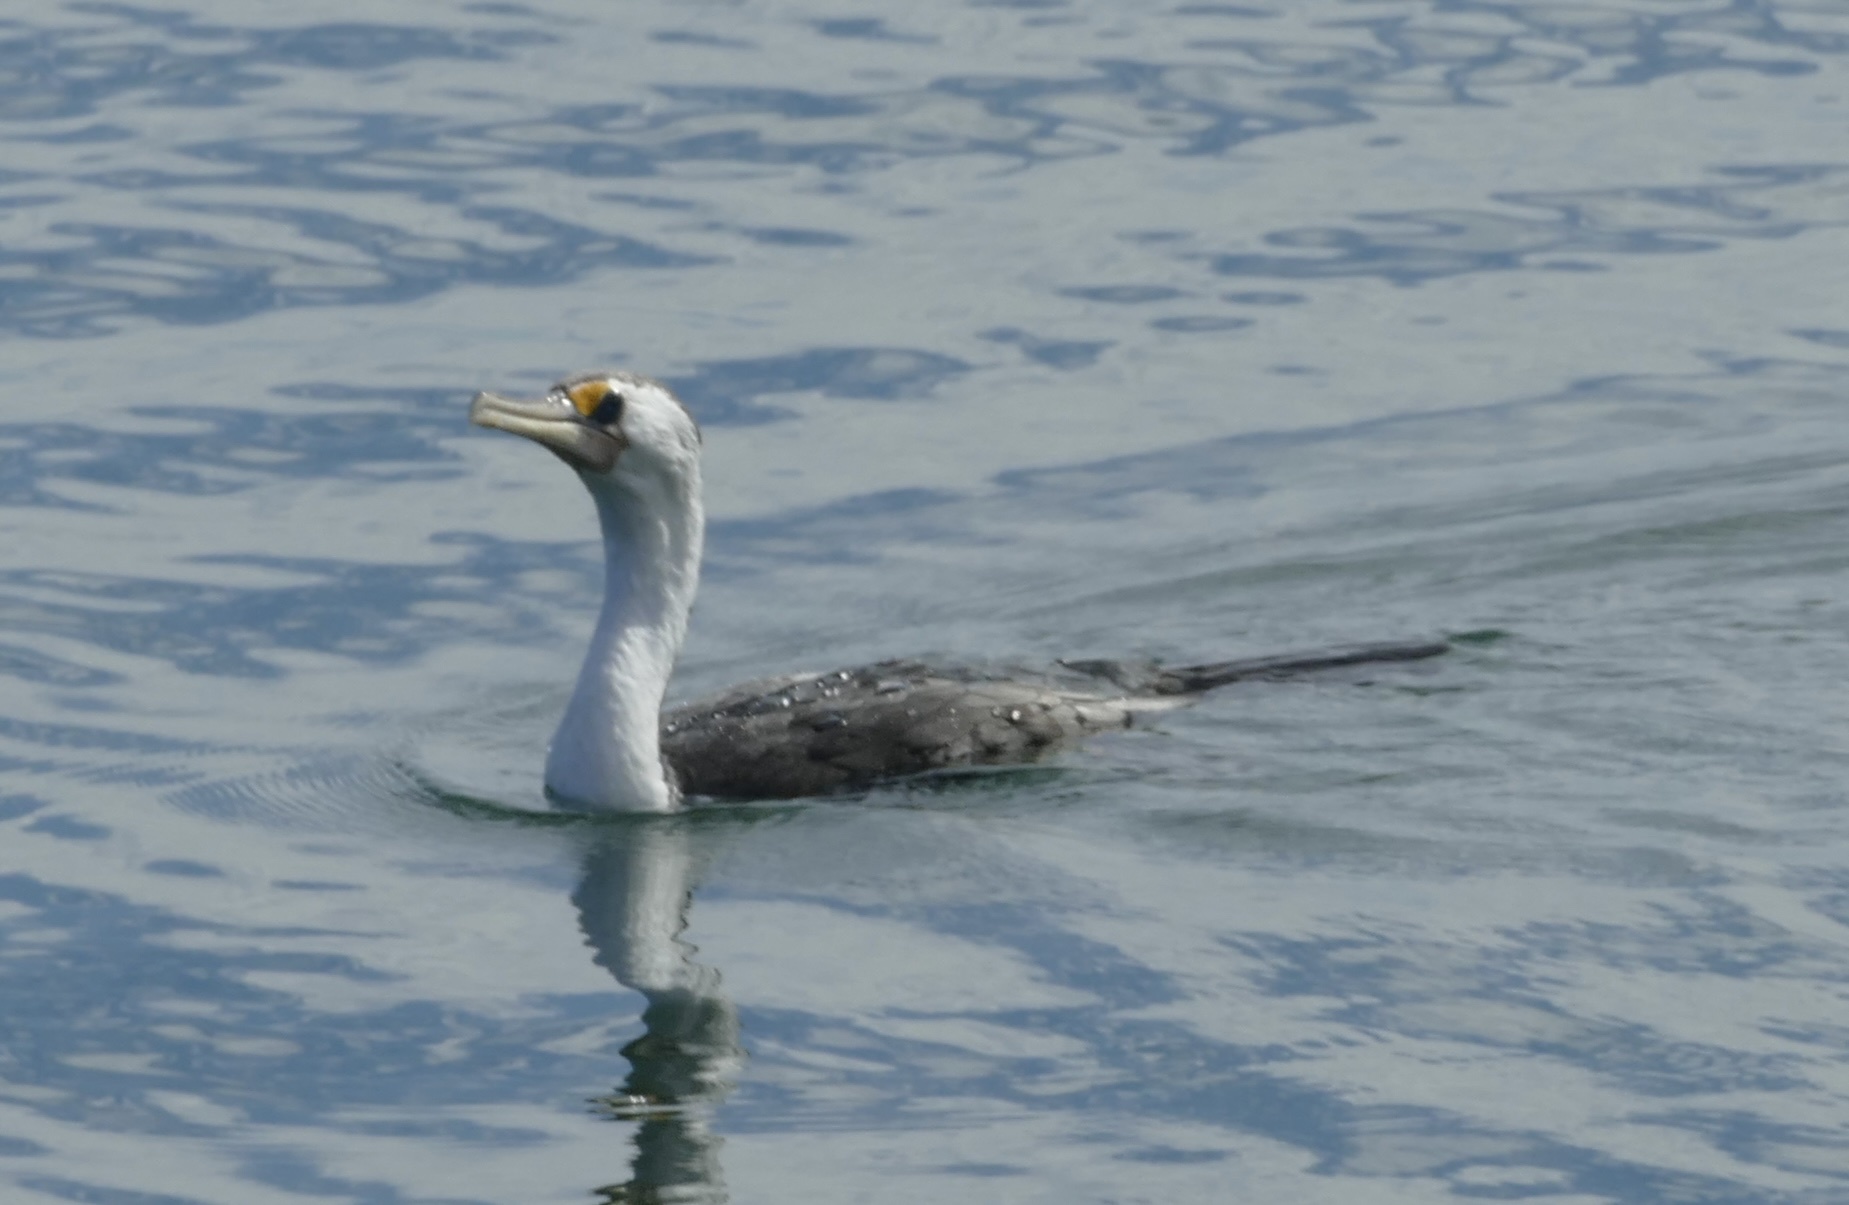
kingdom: Animalia
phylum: Chordata
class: Aves
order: Suliformes
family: Phalacrocoracidae
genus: Phalacrocorax
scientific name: Phalacrocorax varius
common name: Pied cormorant
